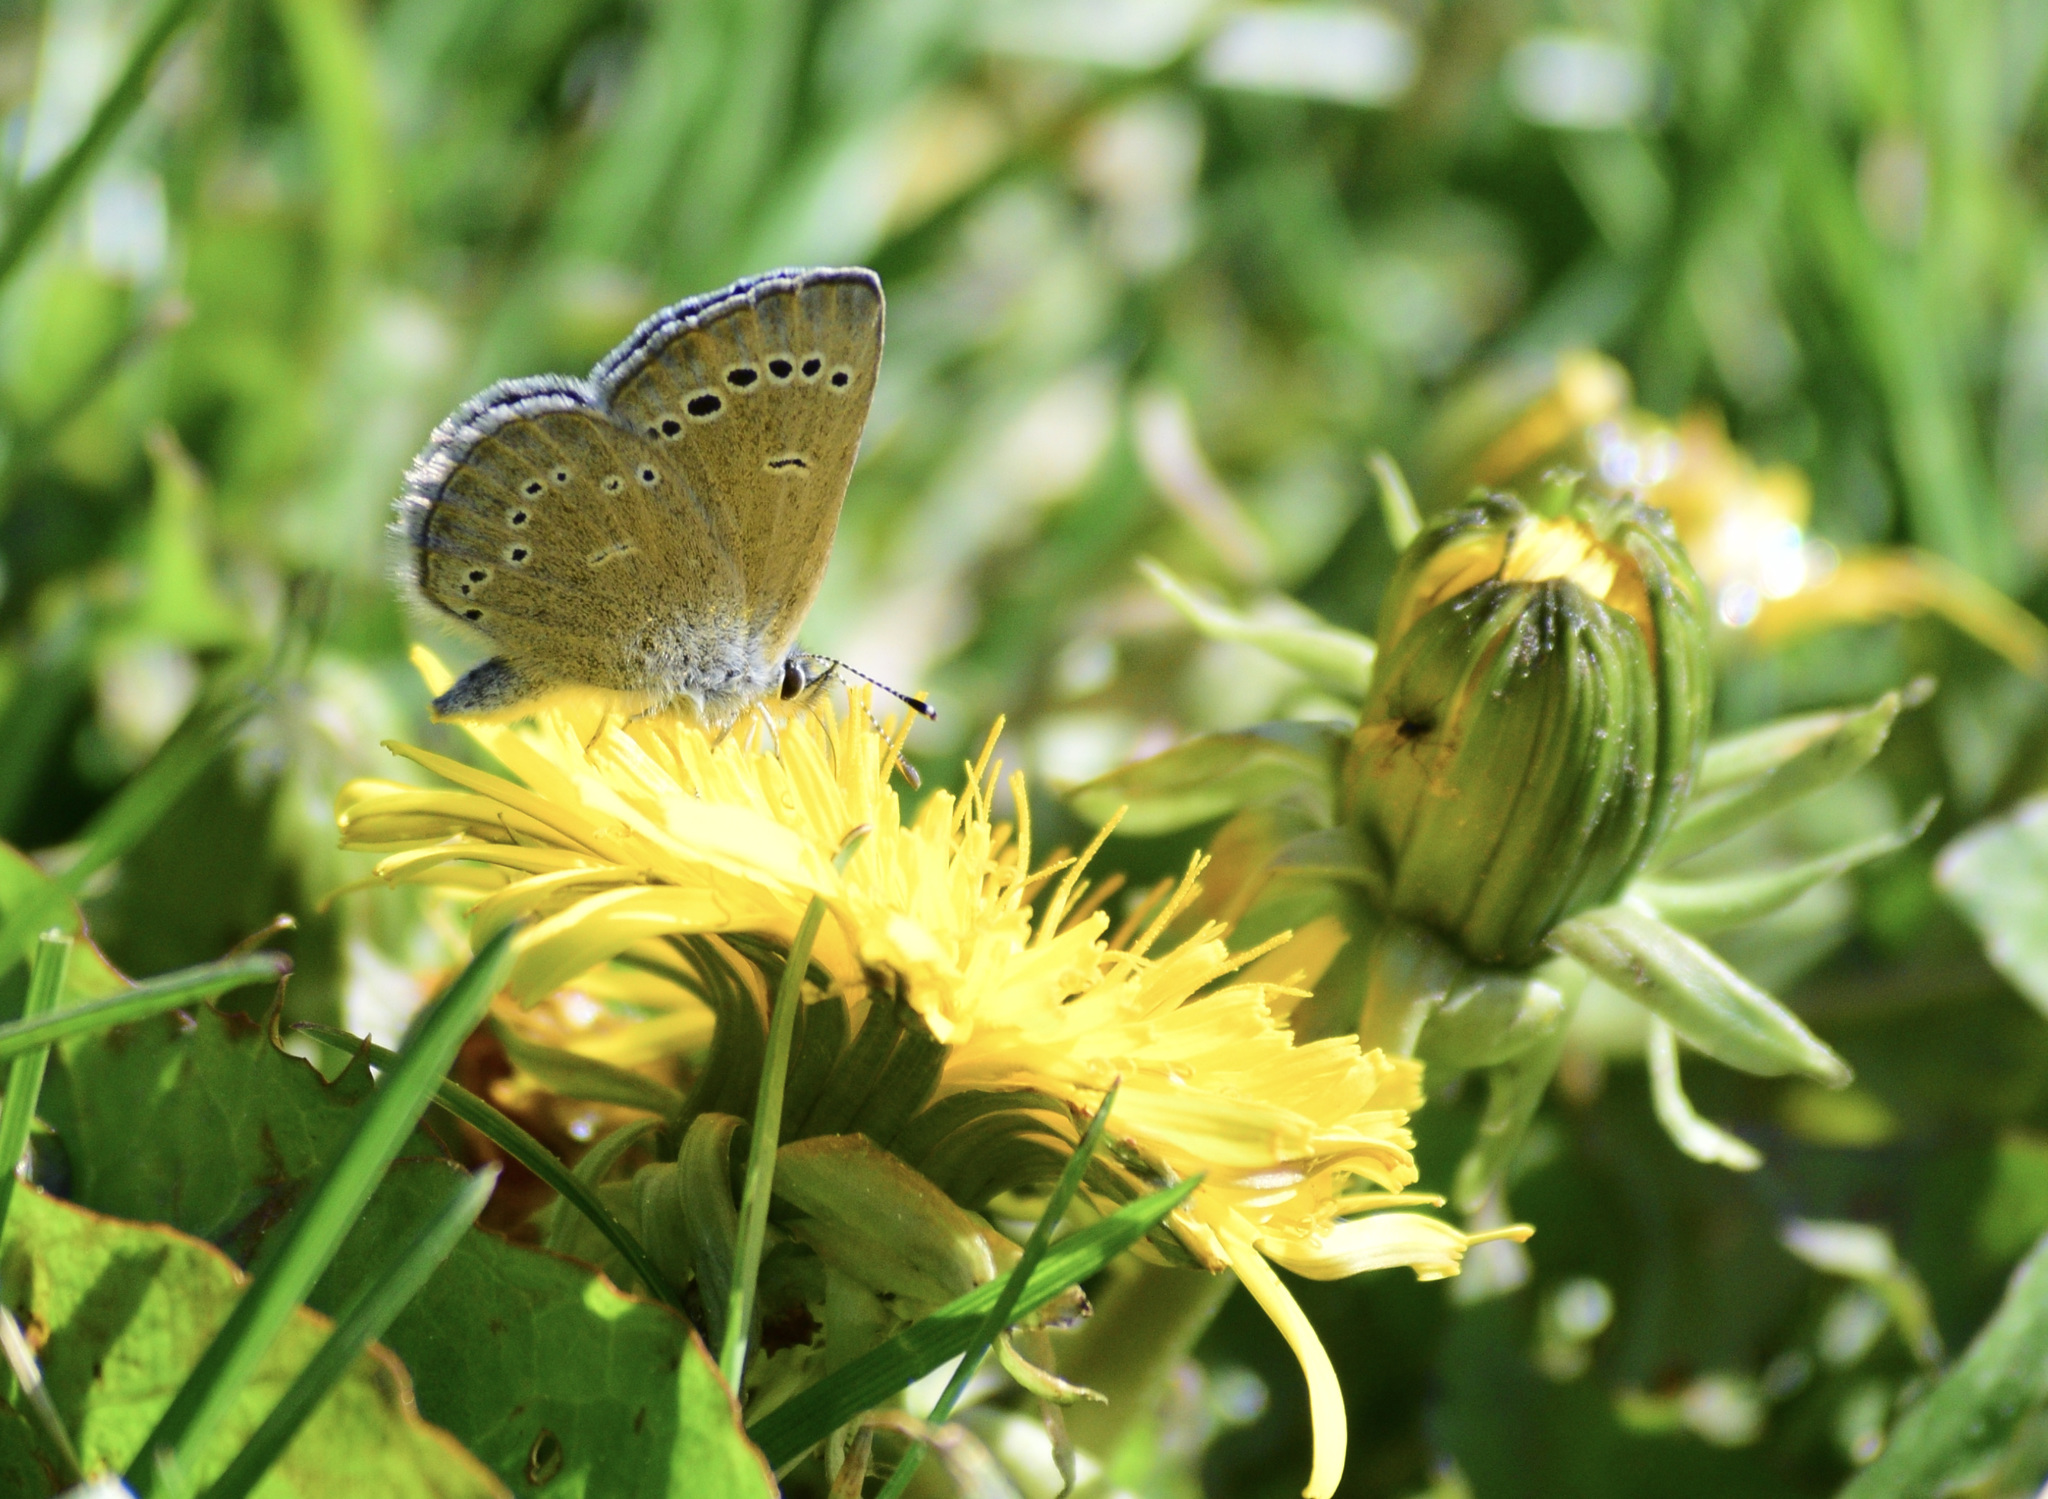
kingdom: Animalia
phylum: Arthropoda
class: Insecta
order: Lepidoptera
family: Lycaenidae
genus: Glaucopsyche
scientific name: Glaucopsyche lygdamus
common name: Silvery blue
